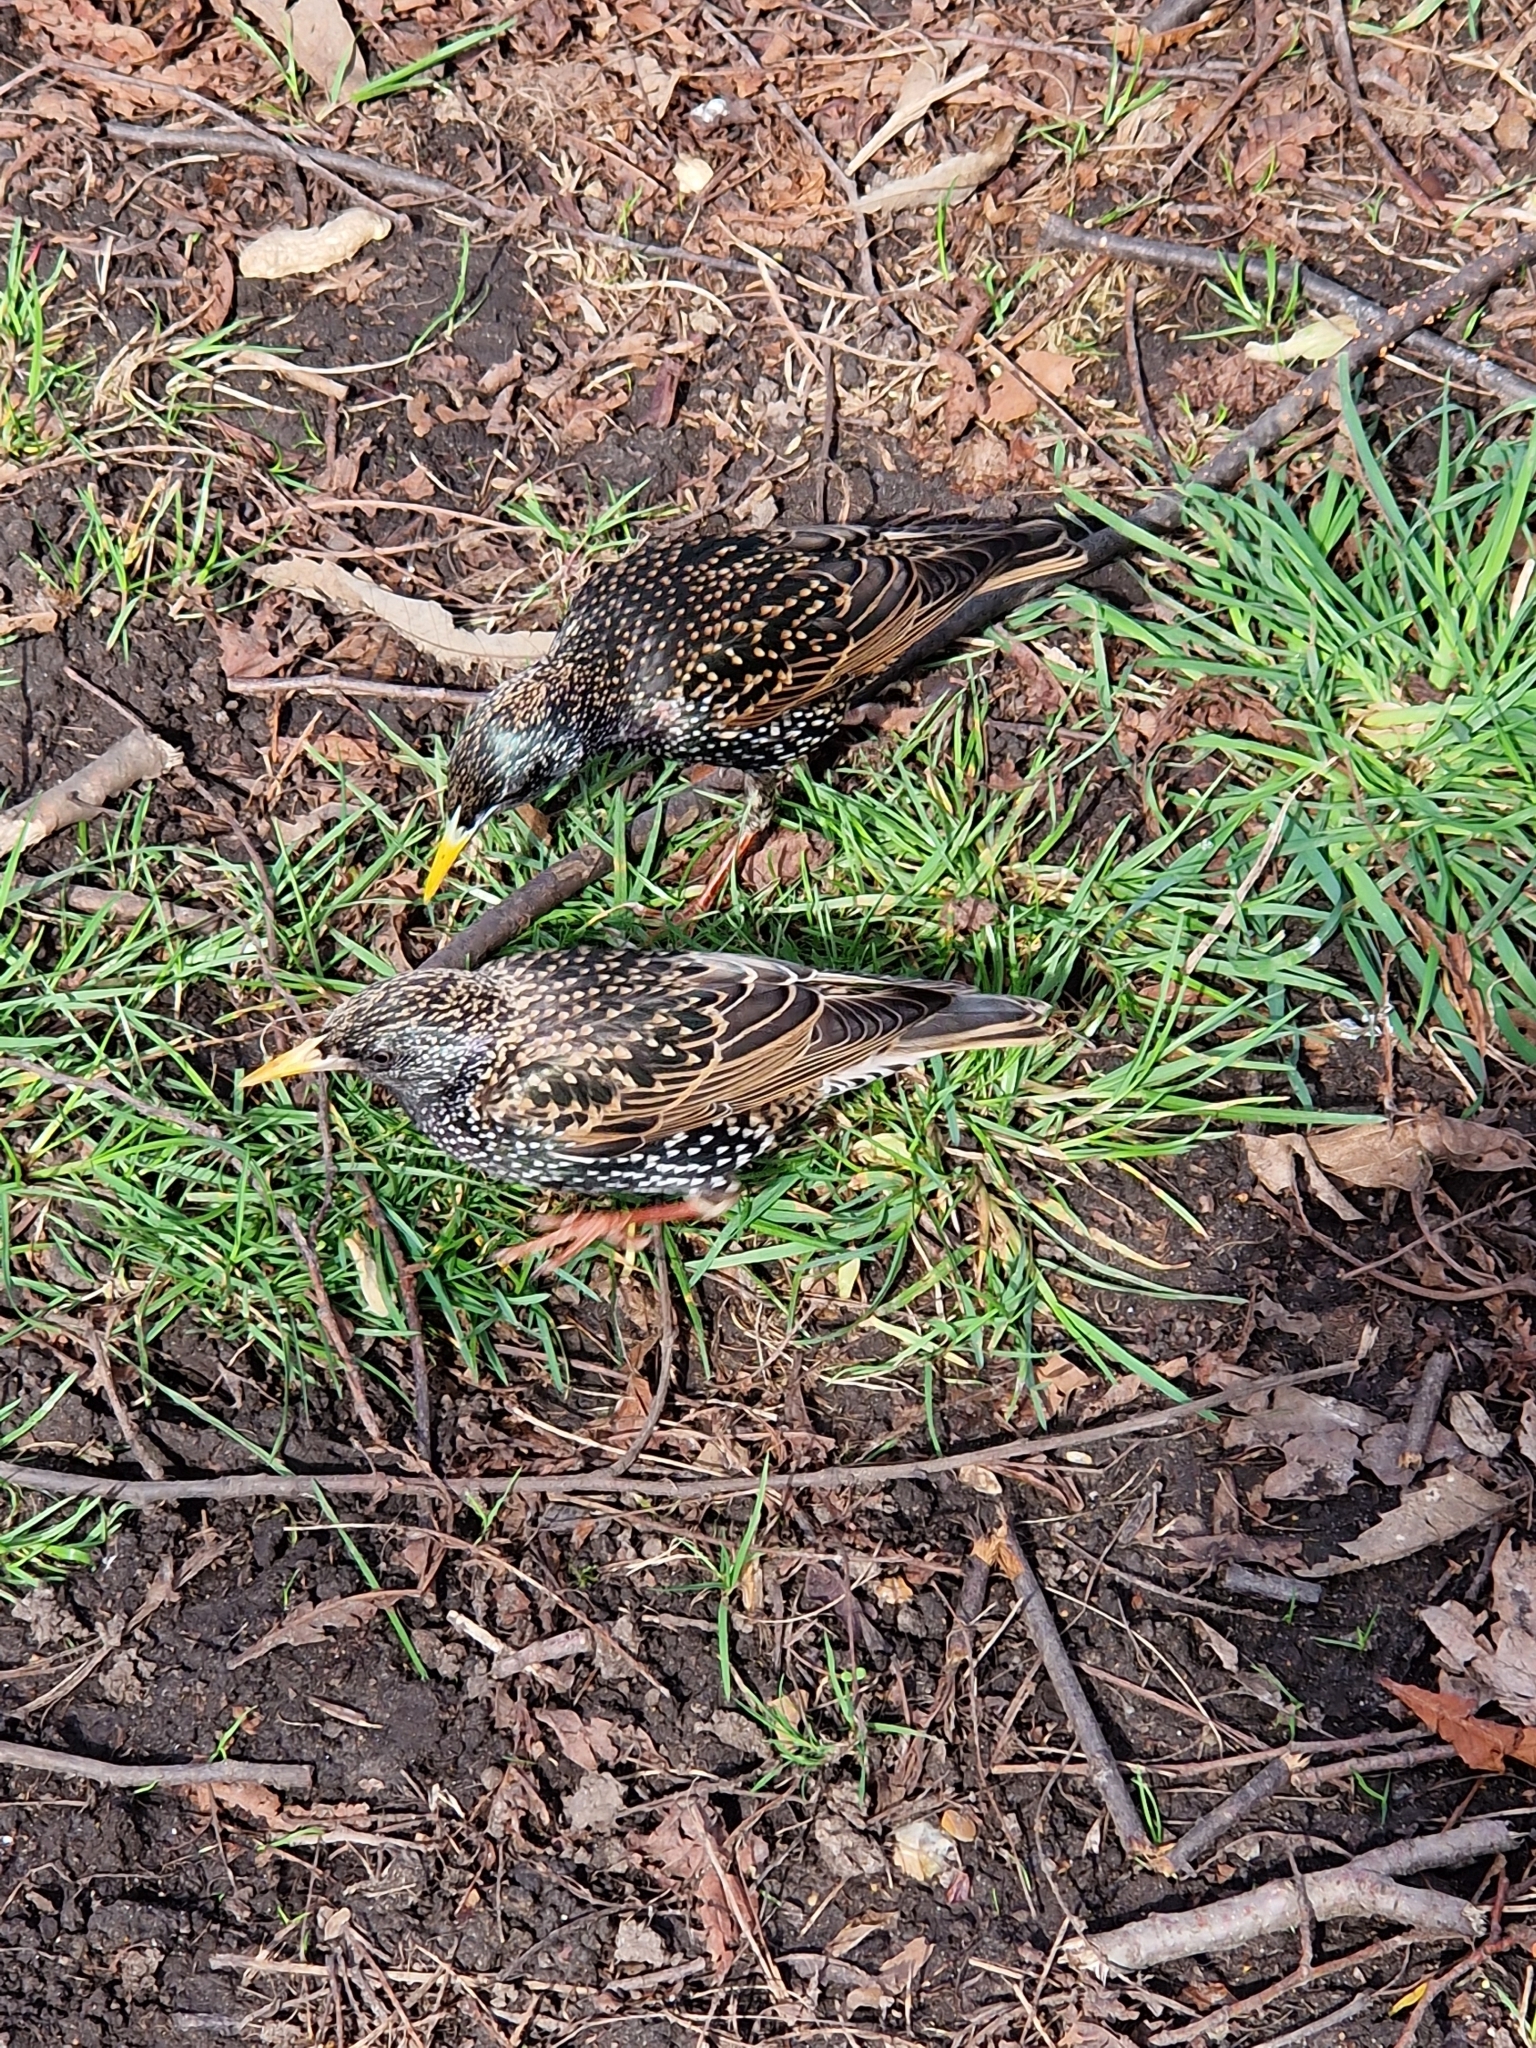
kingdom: Animalia
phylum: Chordata
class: Aves
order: Passeriformes
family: Sturnidae
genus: Sturnus
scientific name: Sturnus vulgaris
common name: Common starling
